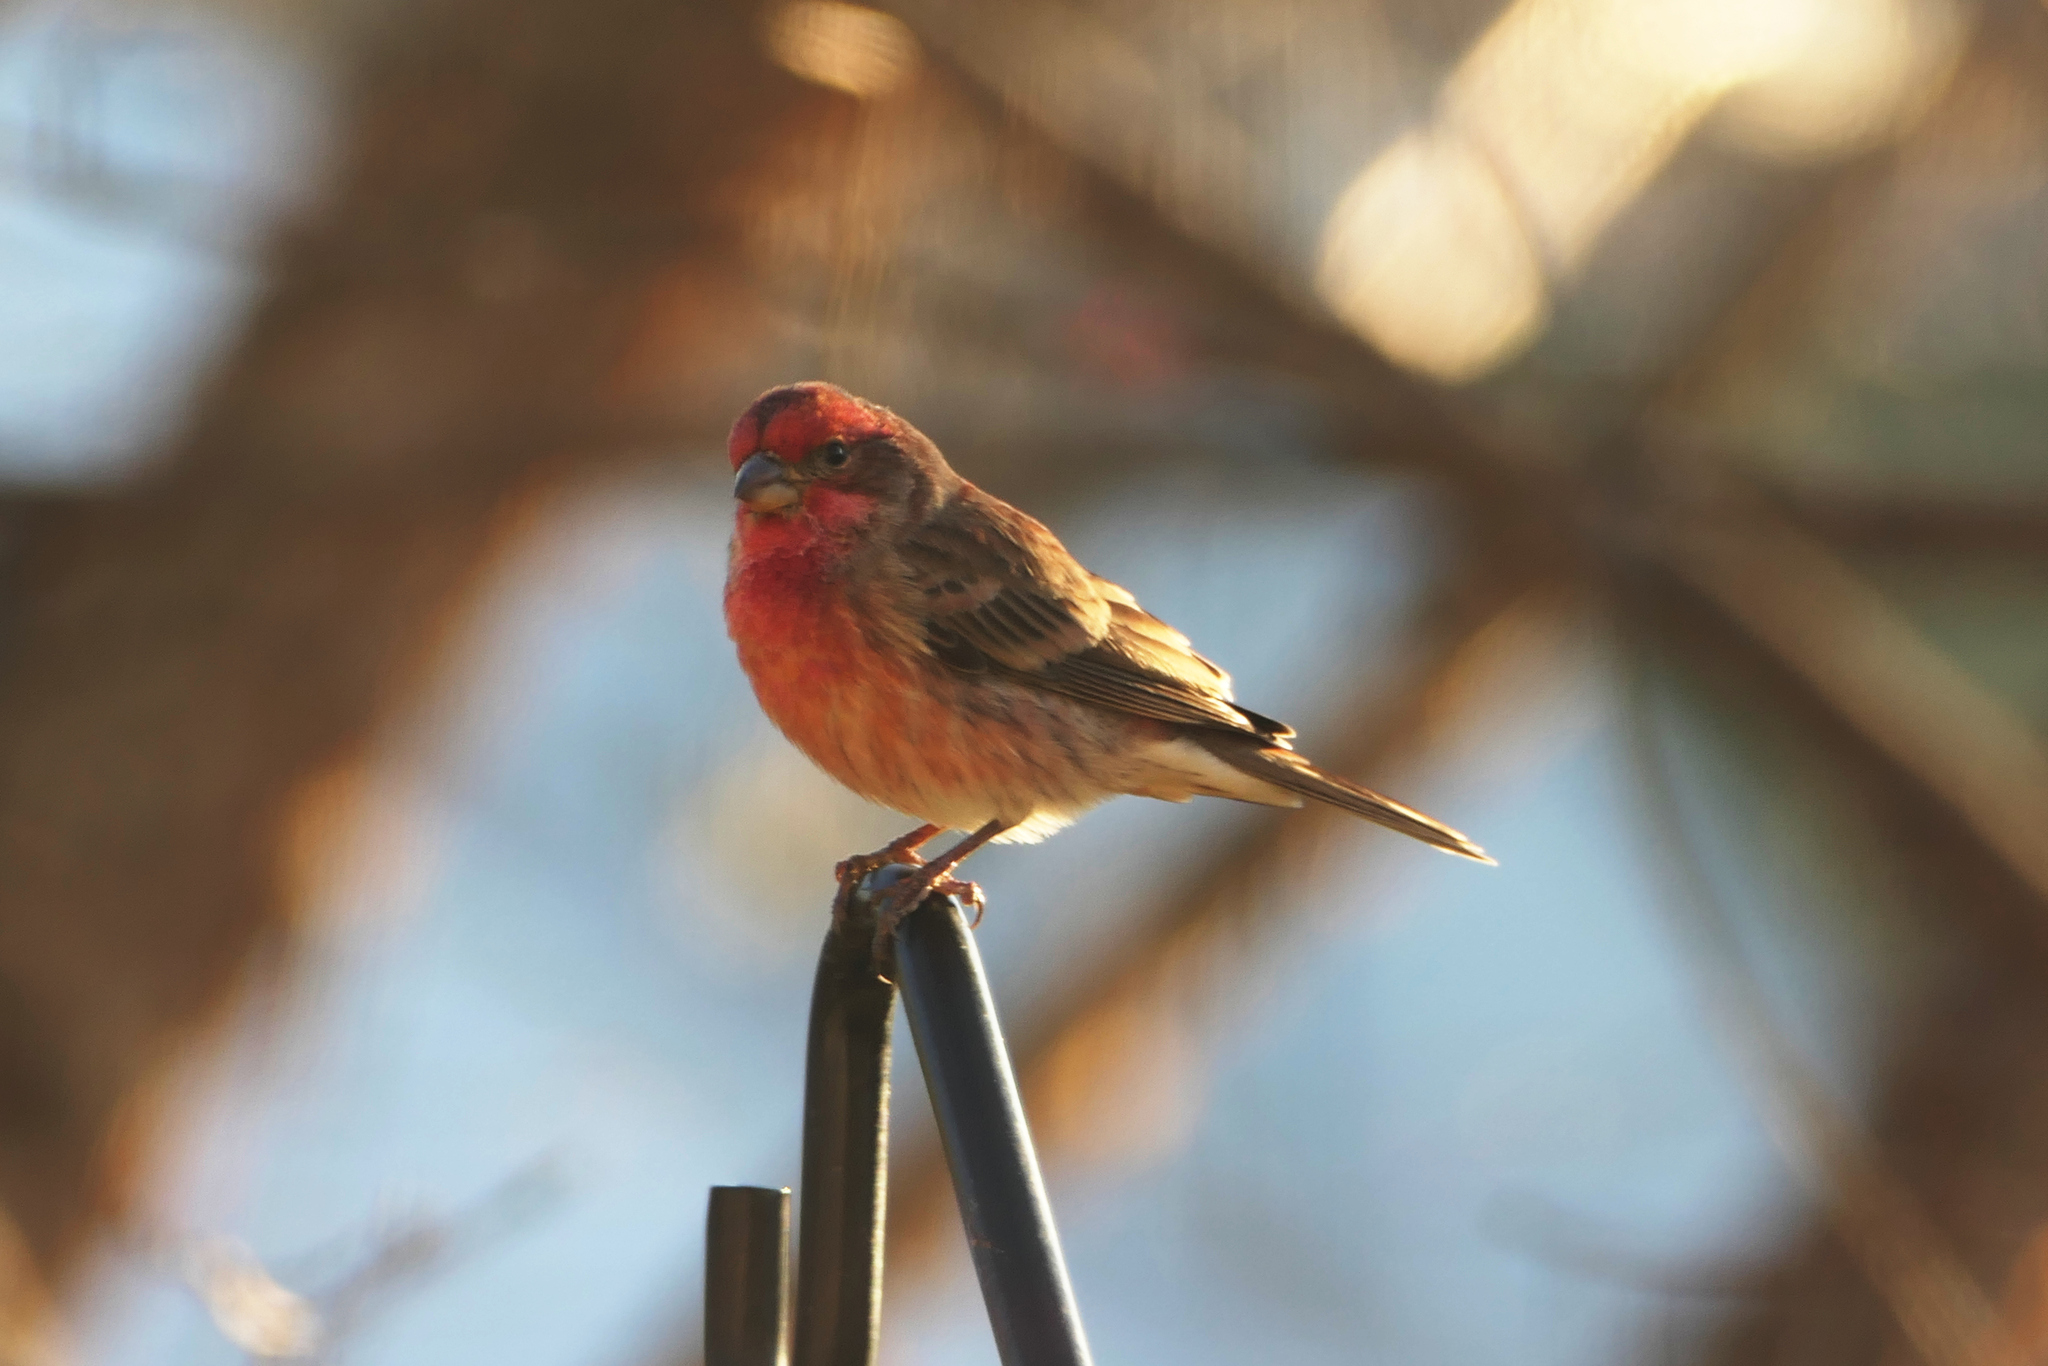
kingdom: Animalia
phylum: Chordata
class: Aves
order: Passeriformes
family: Fringillidae
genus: Haemorhous
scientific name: Haemorhous mexicanus
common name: House finch
